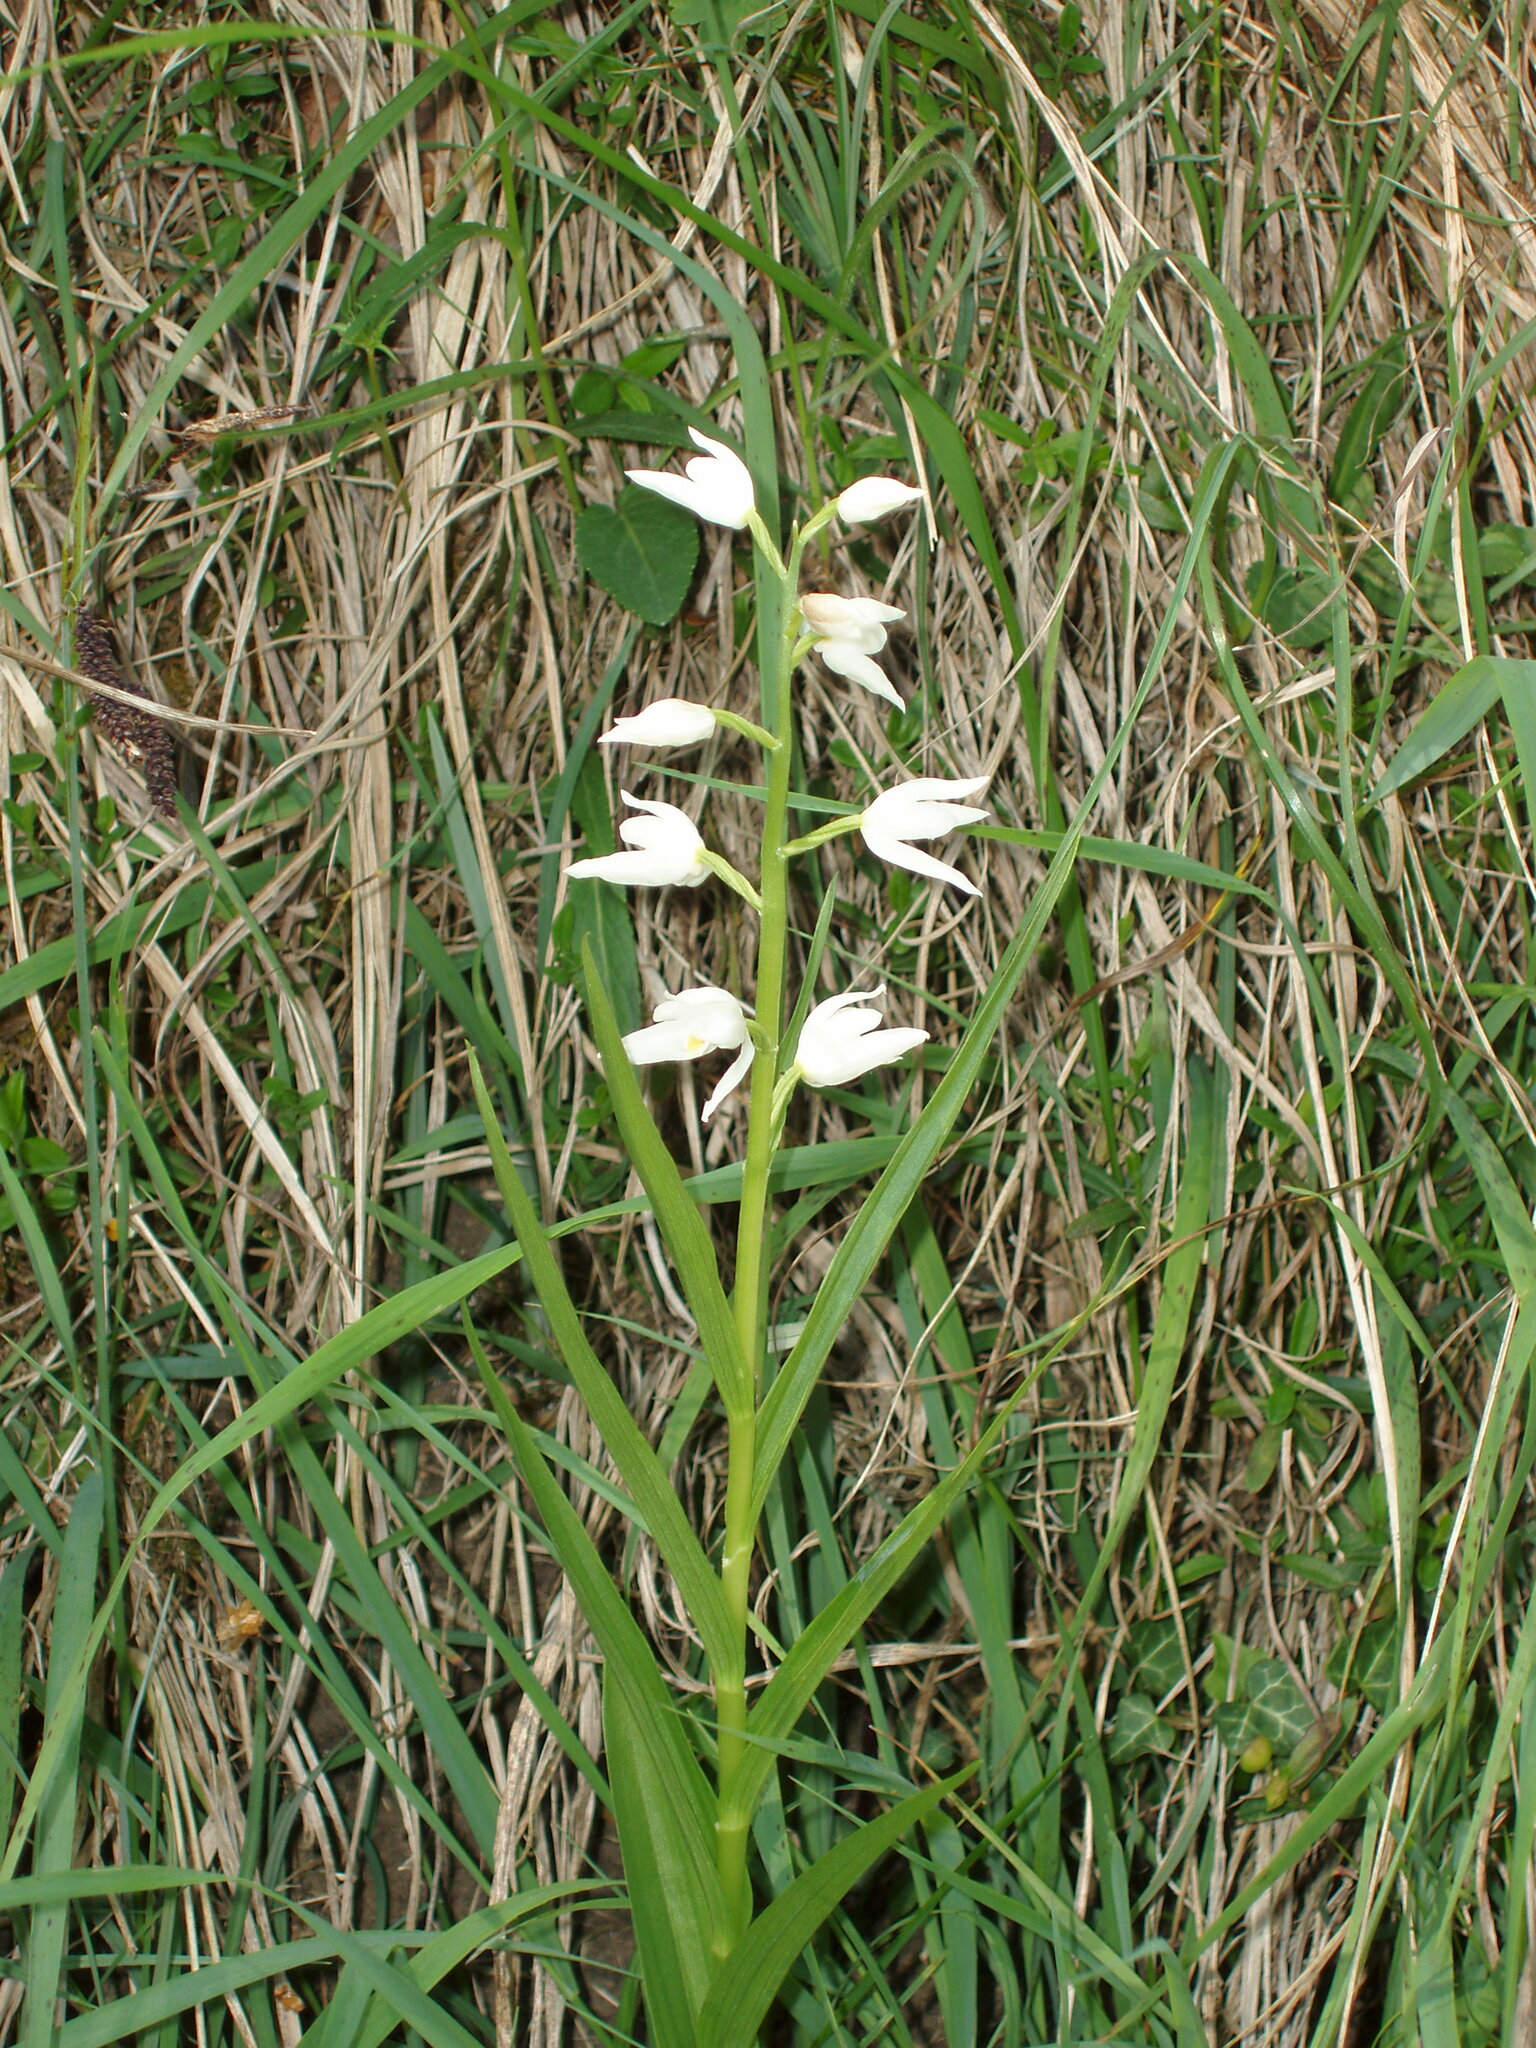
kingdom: Plantae
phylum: Tracheophyta
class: Liliopsida
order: Asparagales
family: Orchidaceae
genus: Cephalanthera
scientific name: Cephalanthera longifolia
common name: Narrow-leaved helleborine
